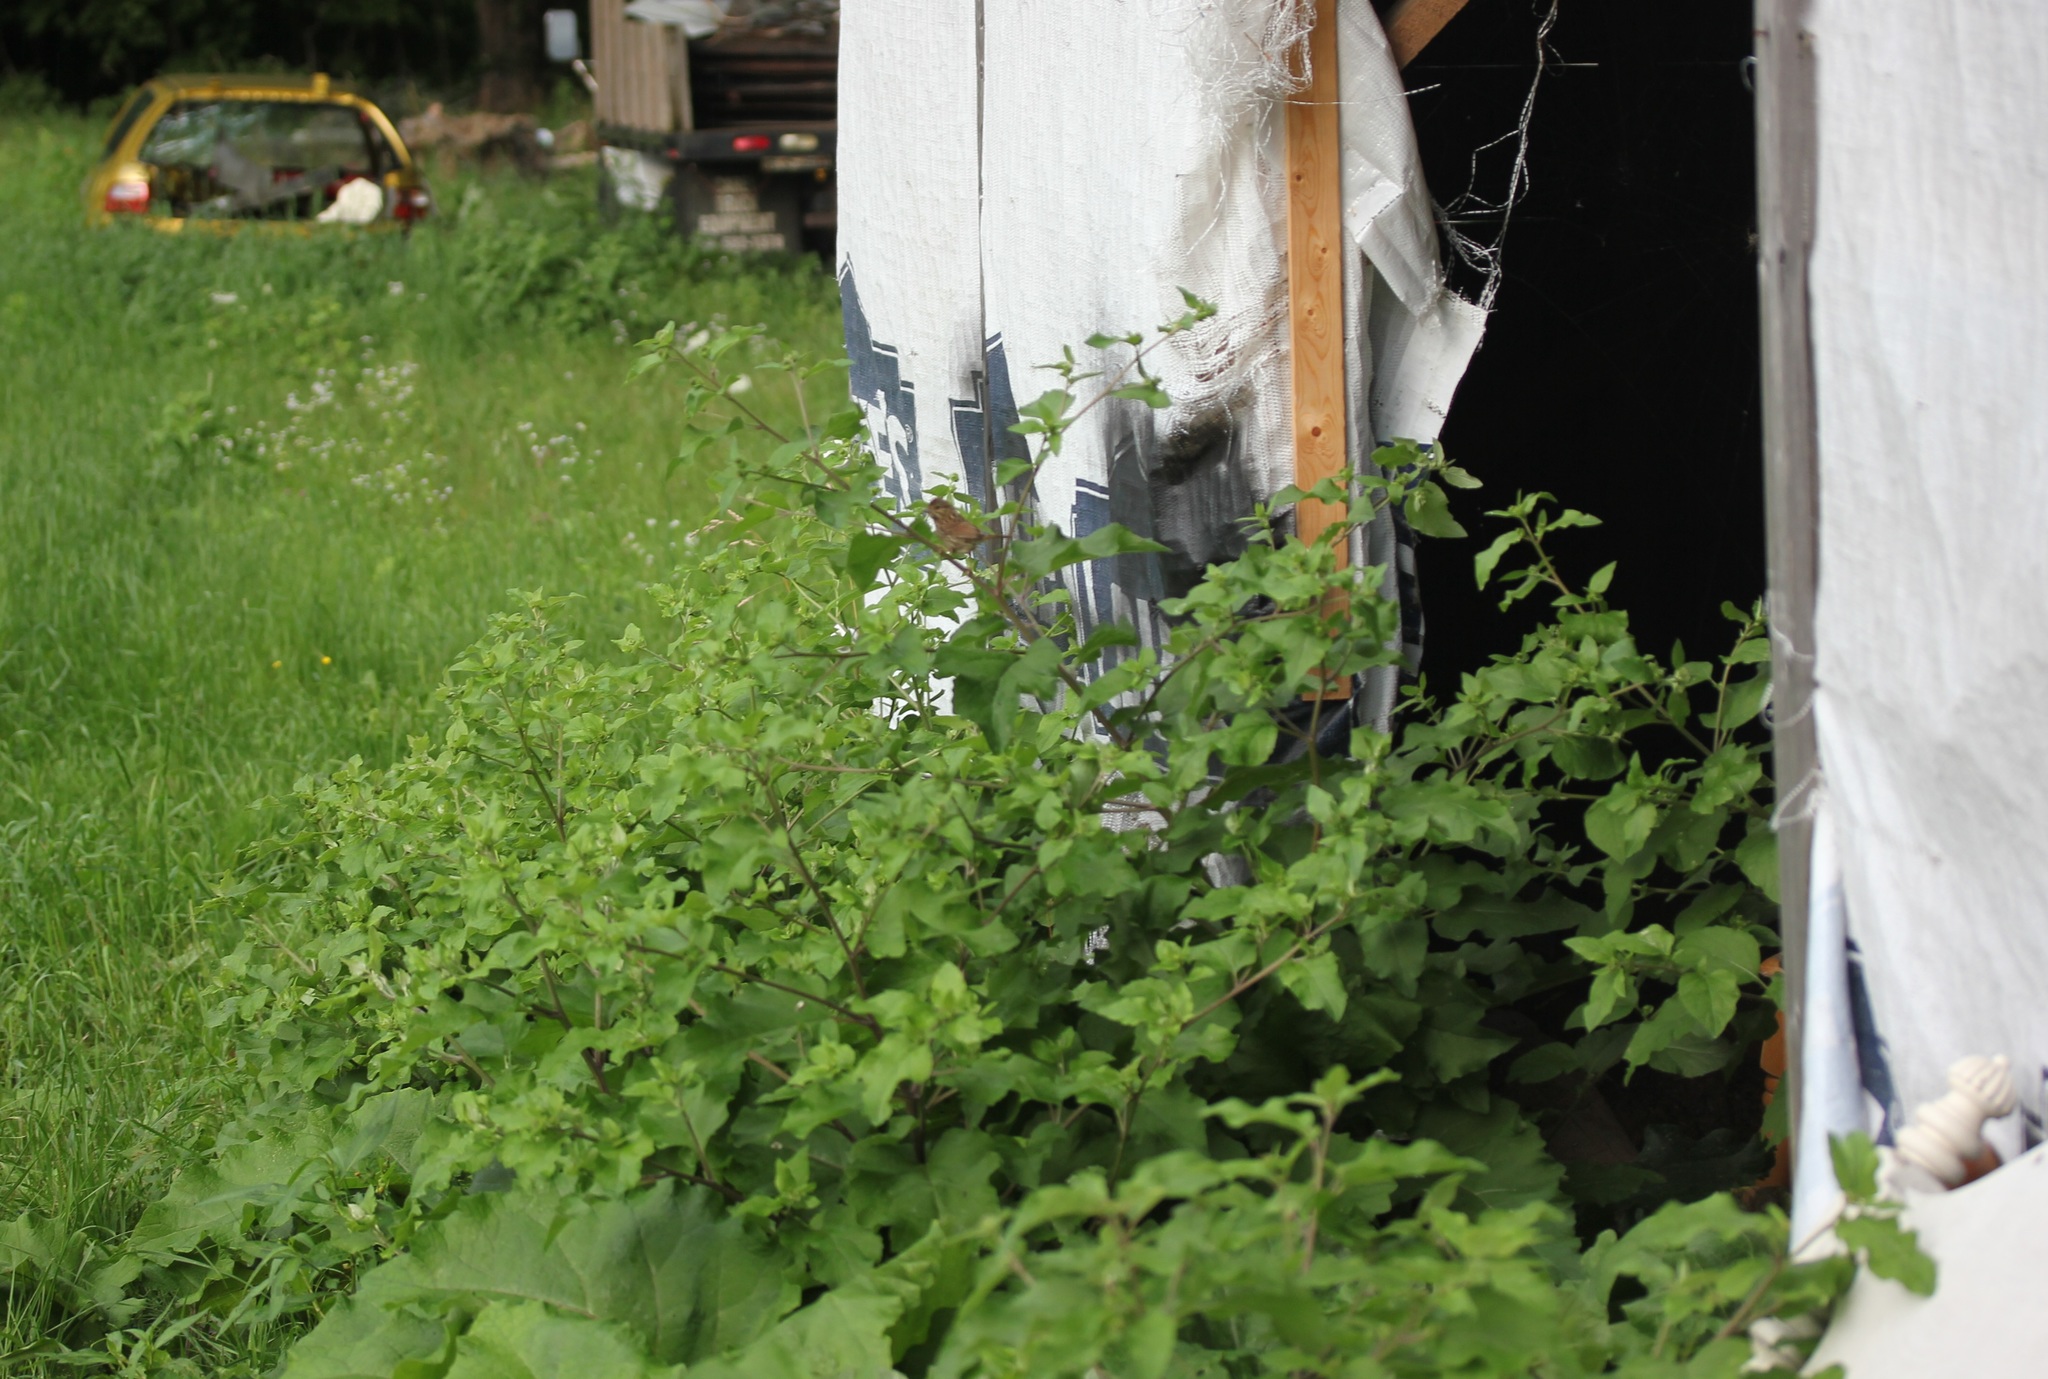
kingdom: Plantae
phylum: Tracheophyta
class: Magnoliopsida
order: Asterales
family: Asteraceae
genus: Arctium
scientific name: Arctium lappa
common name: Greater burdock
